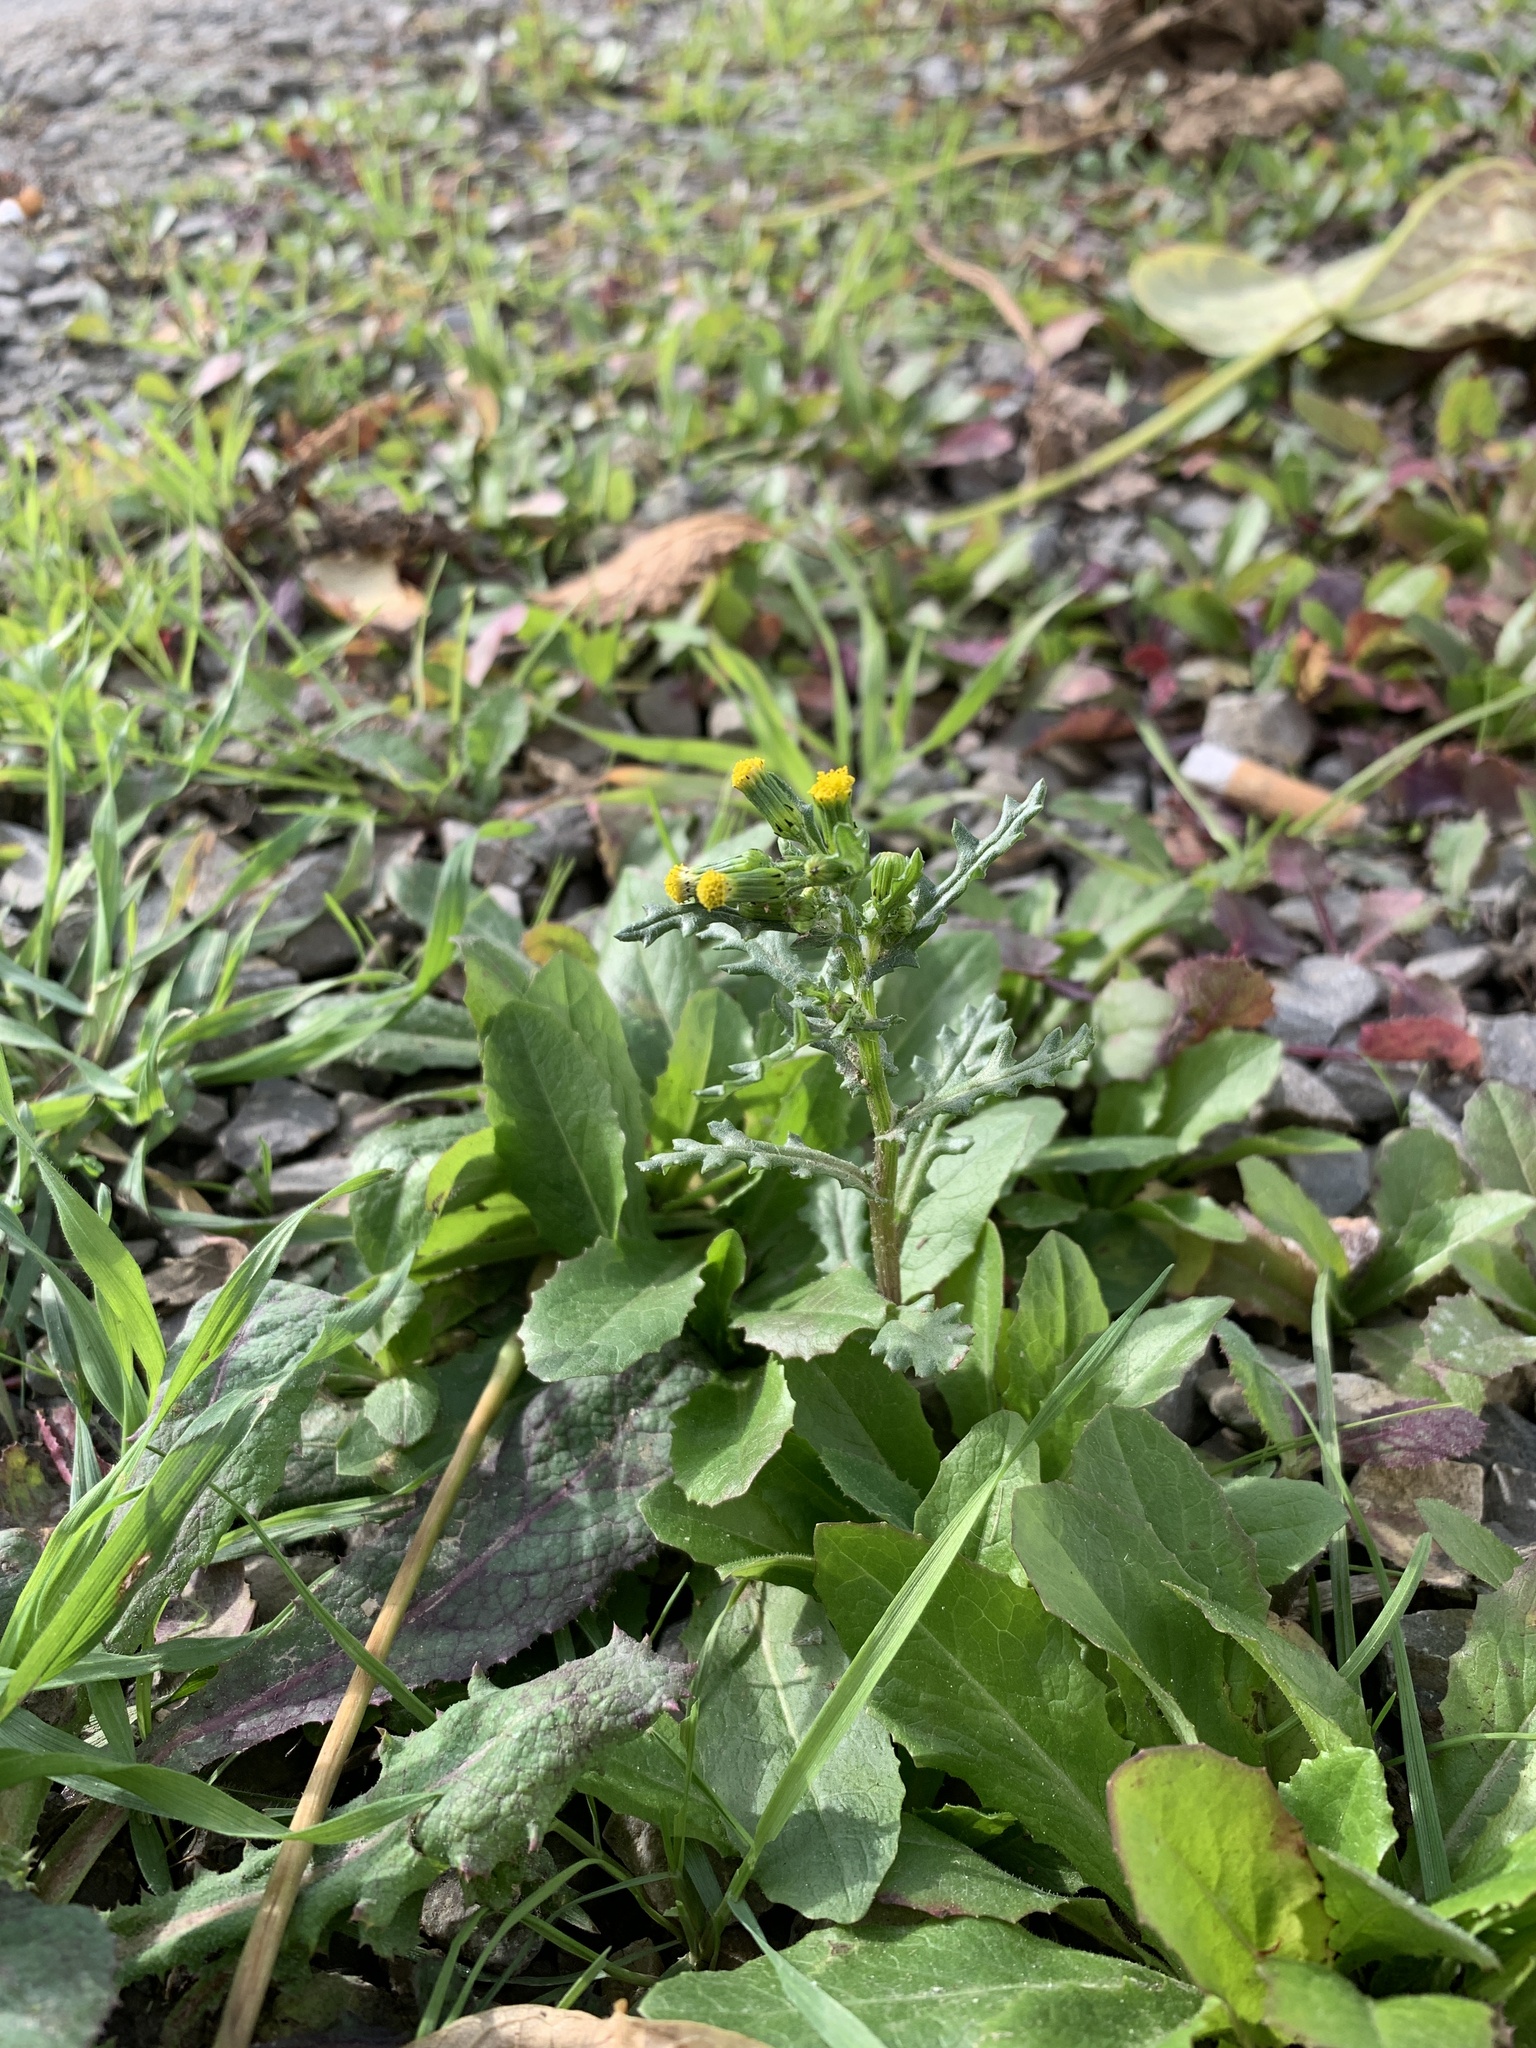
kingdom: Plantae
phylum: Tracheophyta
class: Magnoliopsida
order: Asterales
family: Asteraceae
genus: Senecio
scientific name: Senecio vulgaris
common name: Old-man-in-the-spring
